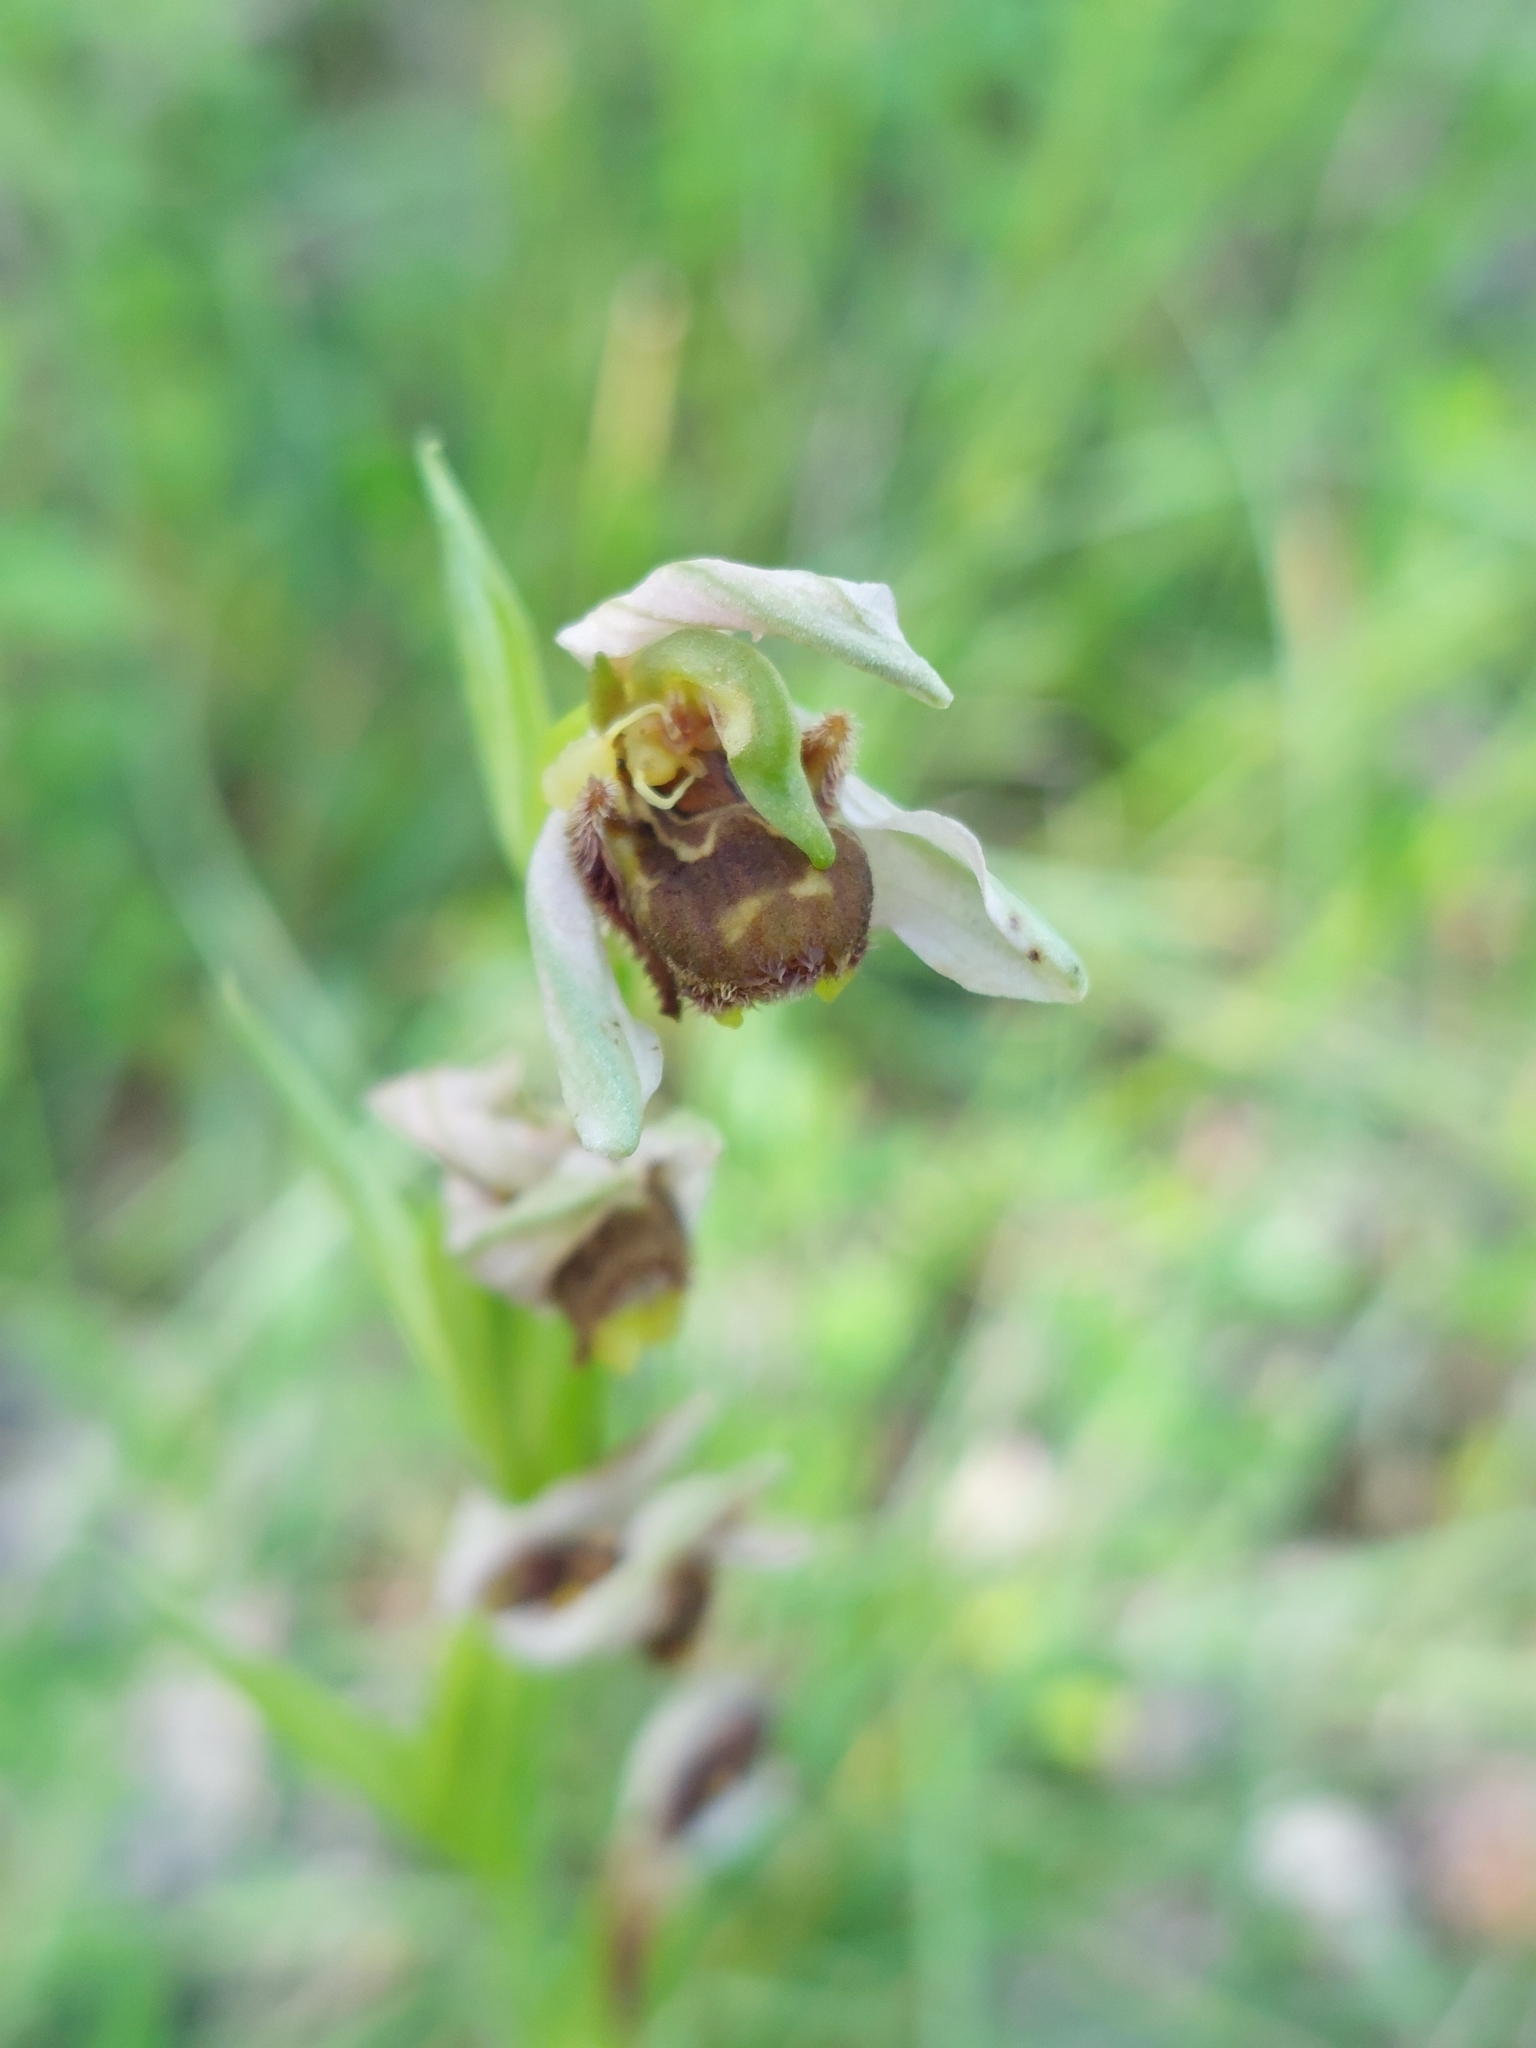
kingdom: Plantae
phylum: Tracheophyta
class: Liliopsida
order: Asparagales
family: Orchidaceae
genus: Ophrys
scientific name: Ophrys apifera
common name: Bee orchid
